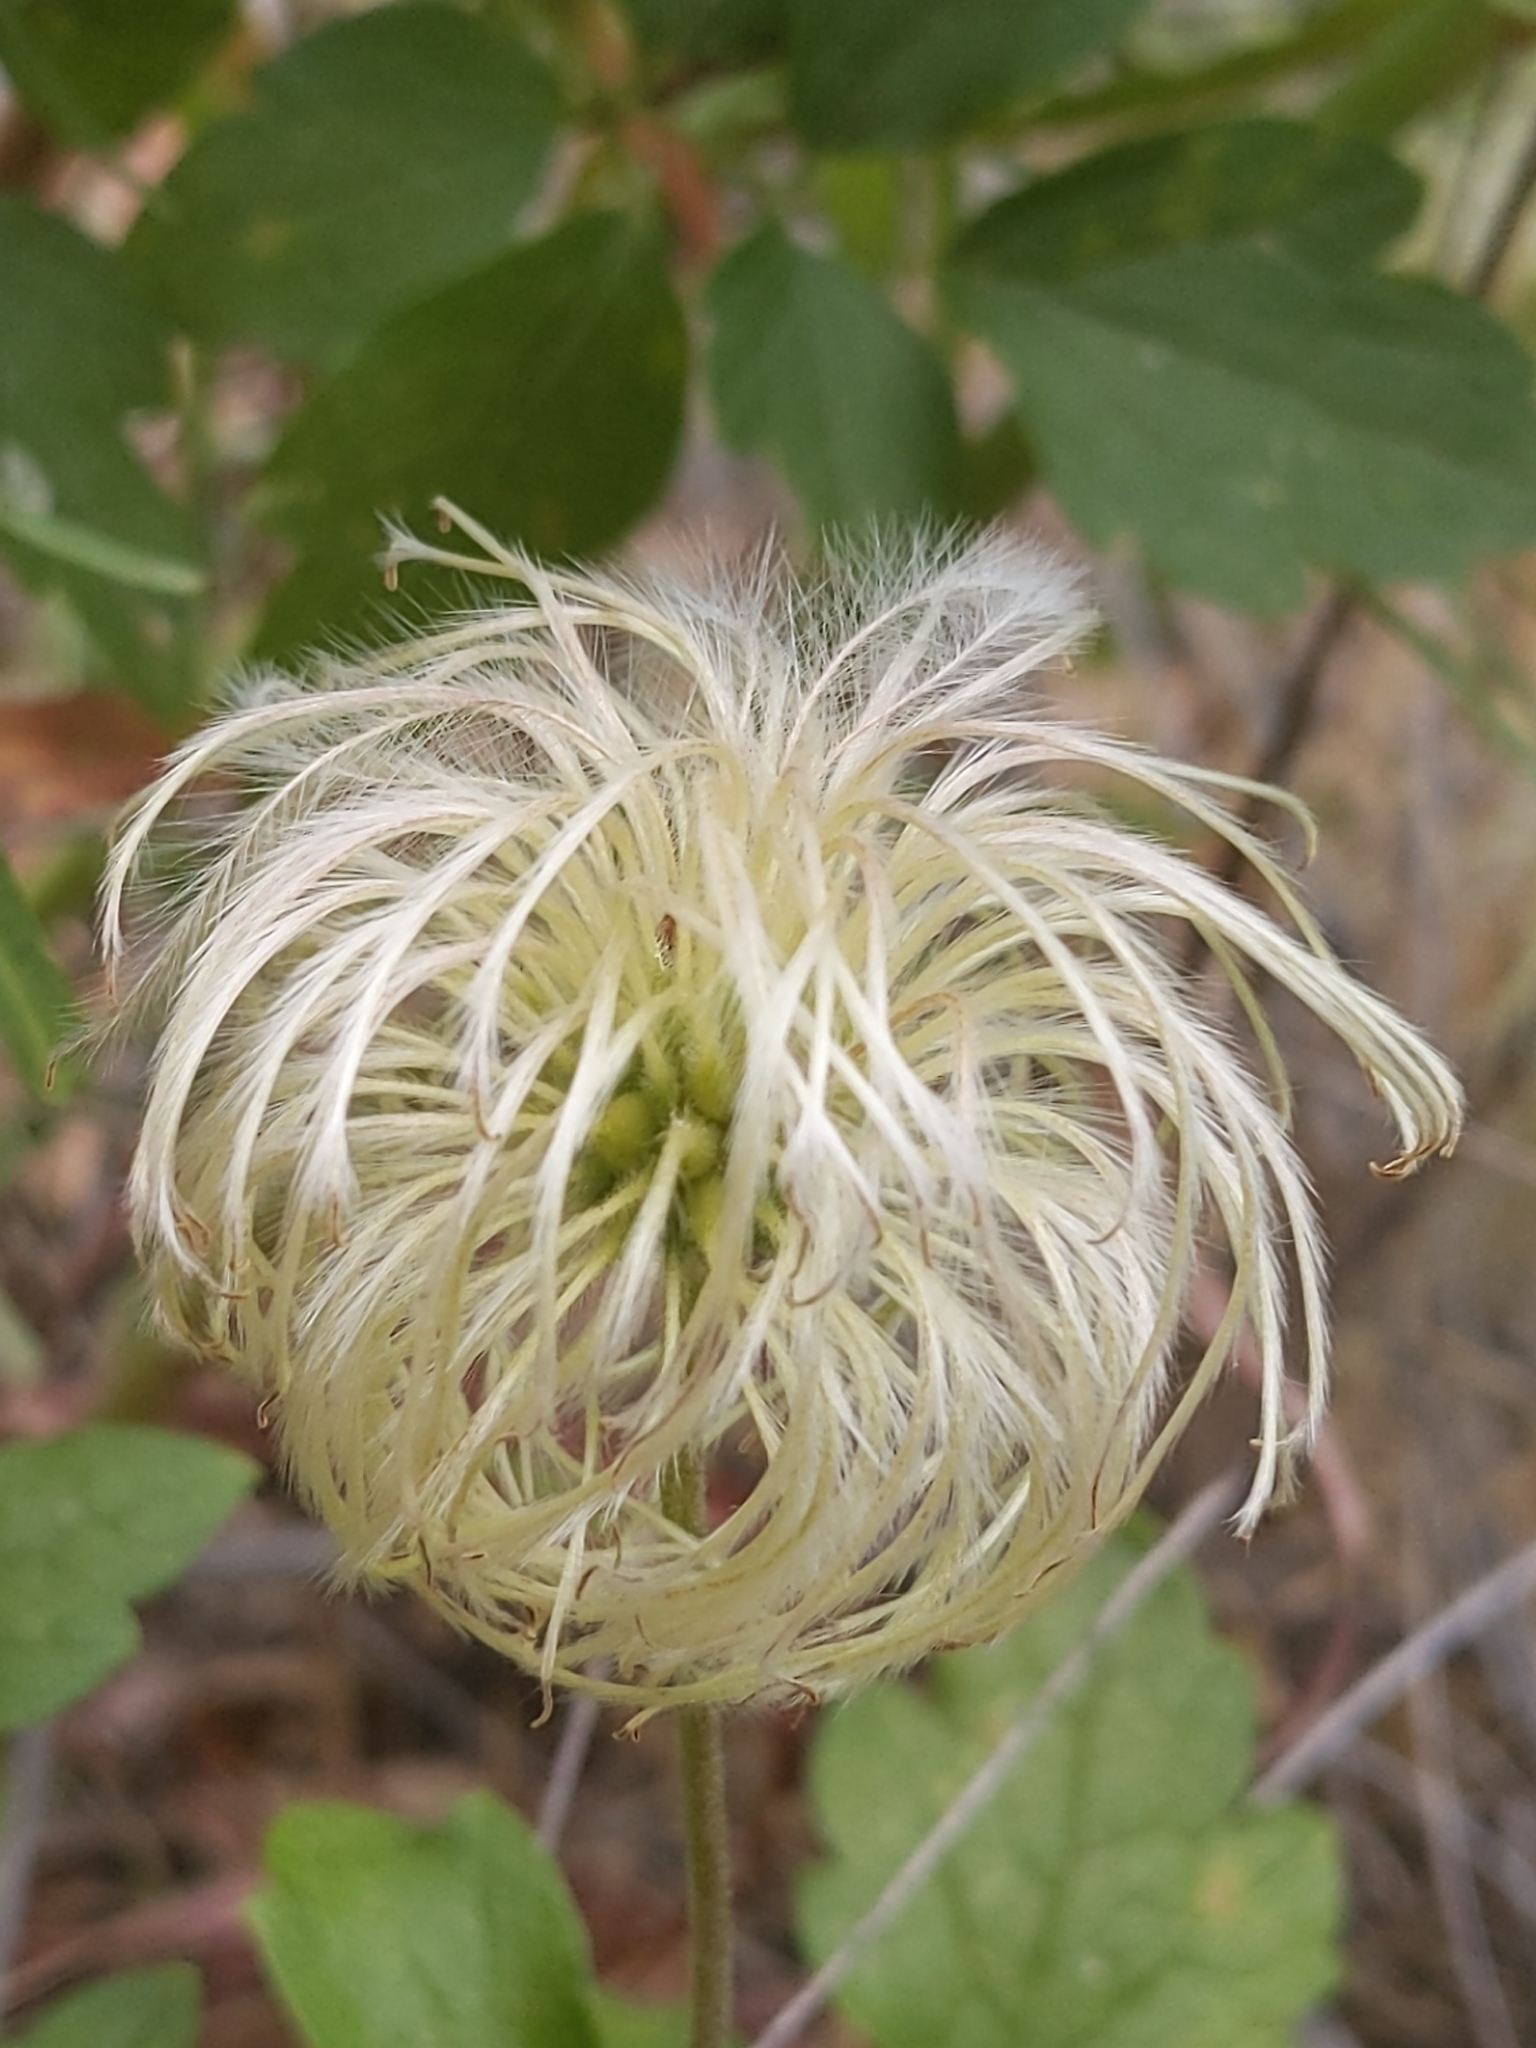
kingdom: Plantae
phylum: Tracheophyta
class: Magnoliopsida
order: Ranunculales
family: Ranunculaceae
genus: Clematis
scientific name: Clematis lasiantha
